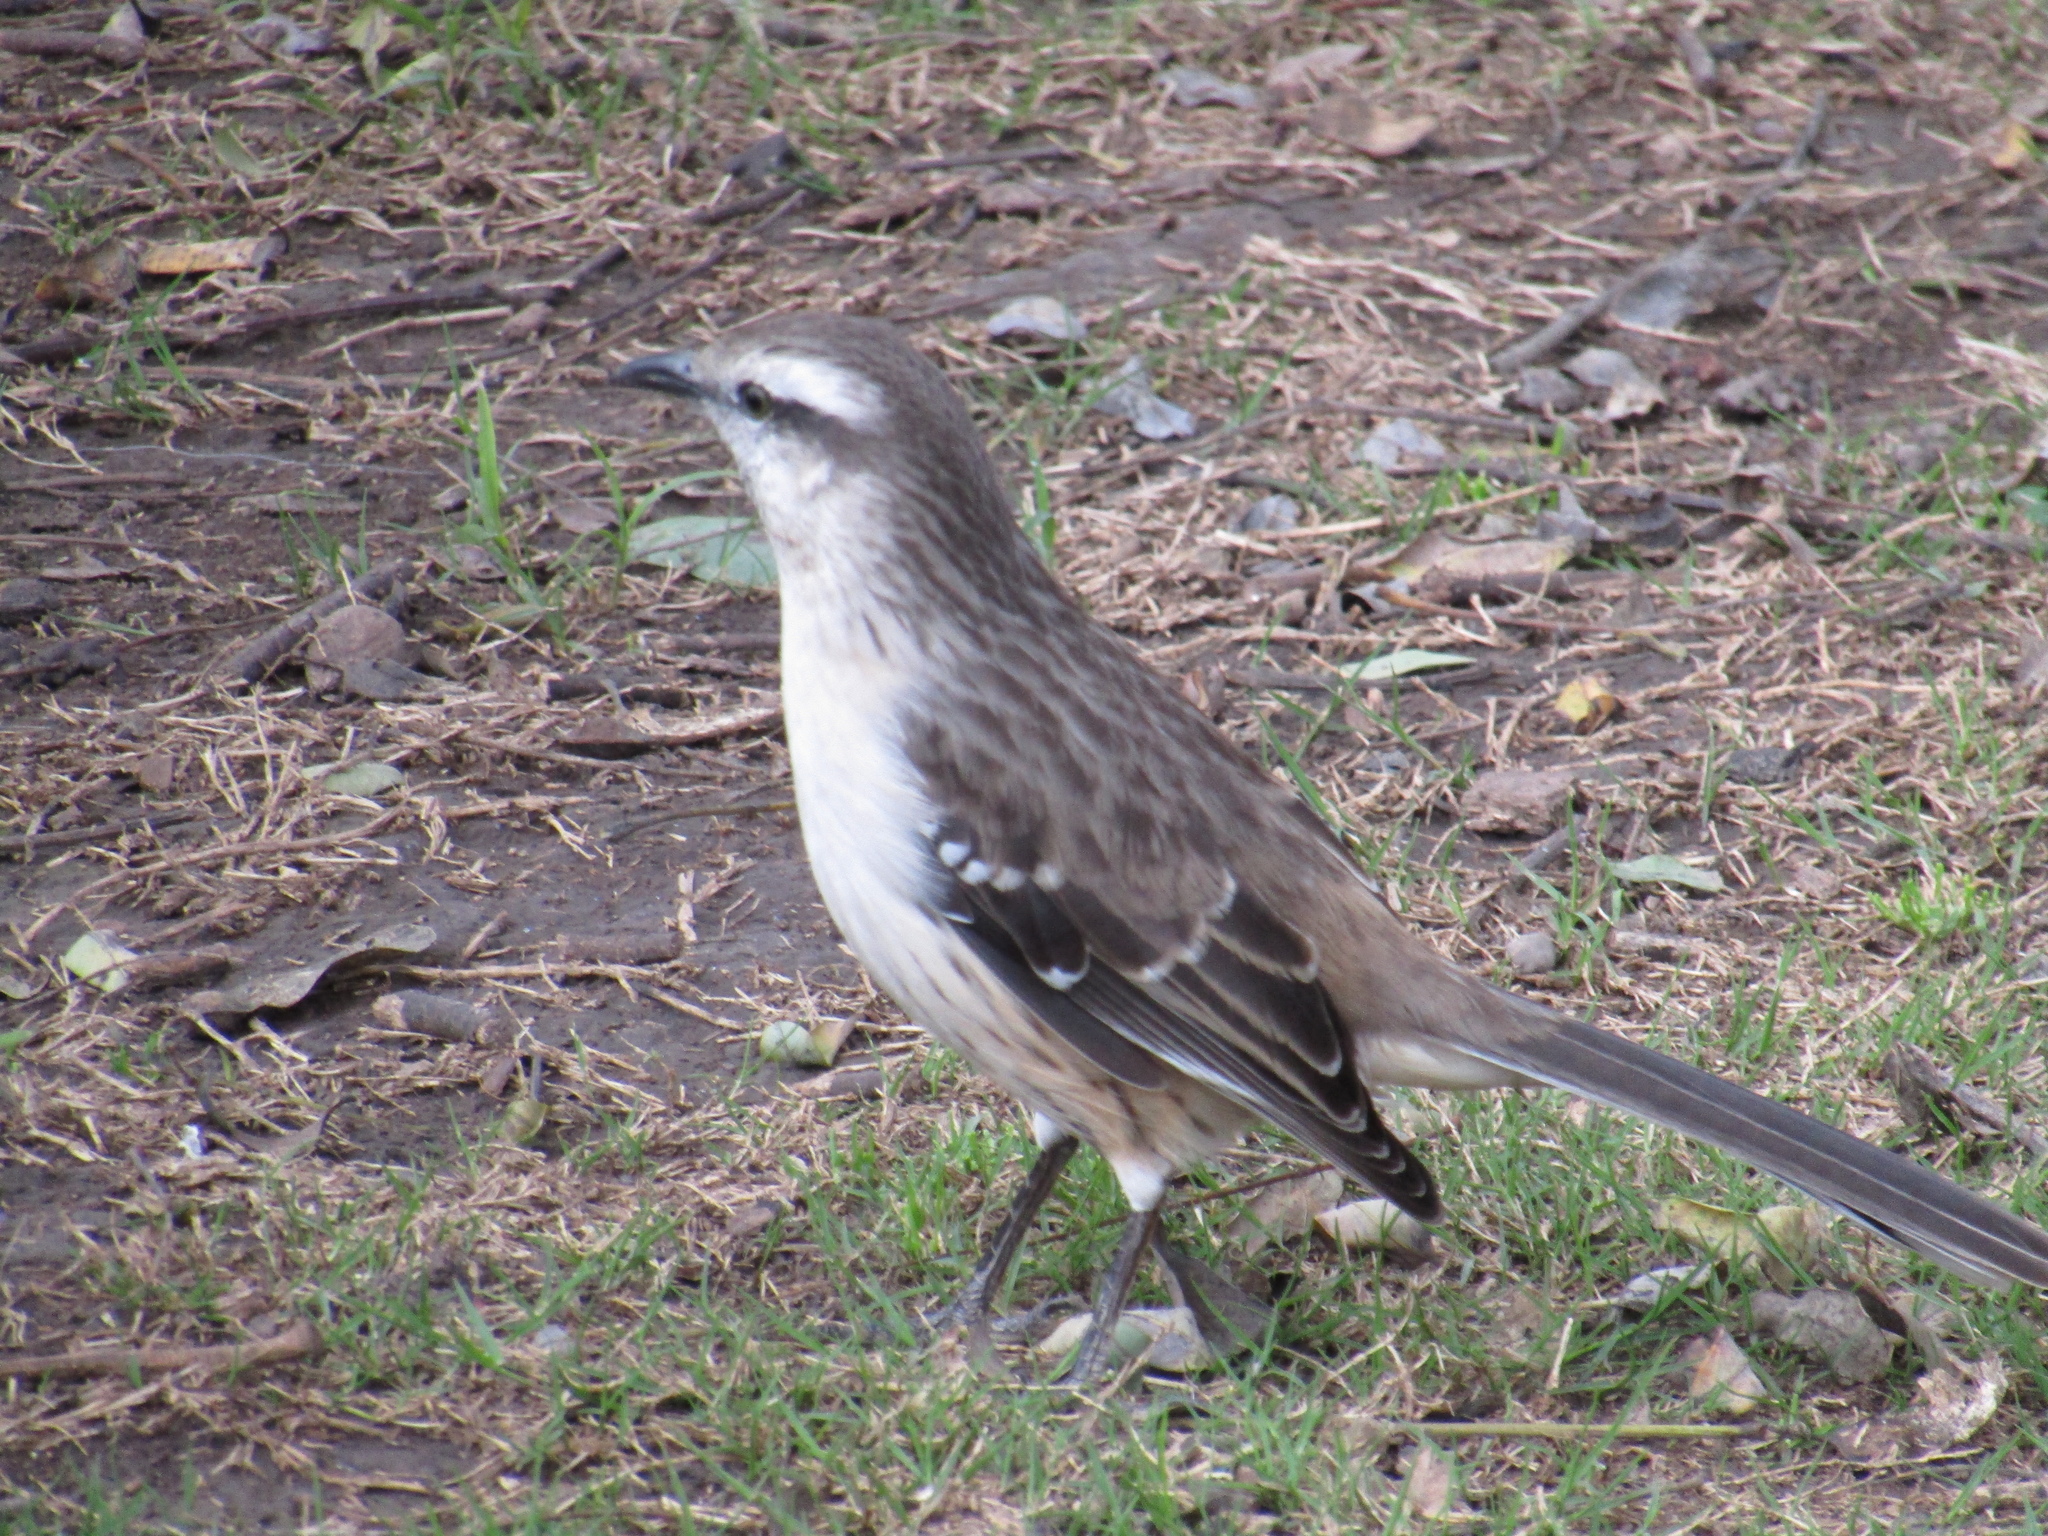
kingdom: Animalia
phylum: Chordata
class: Aves
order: Passeriformes
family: Mimidae
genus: Mimus
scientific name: Mimus saturninus
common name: Chalk-browed mockingbird
